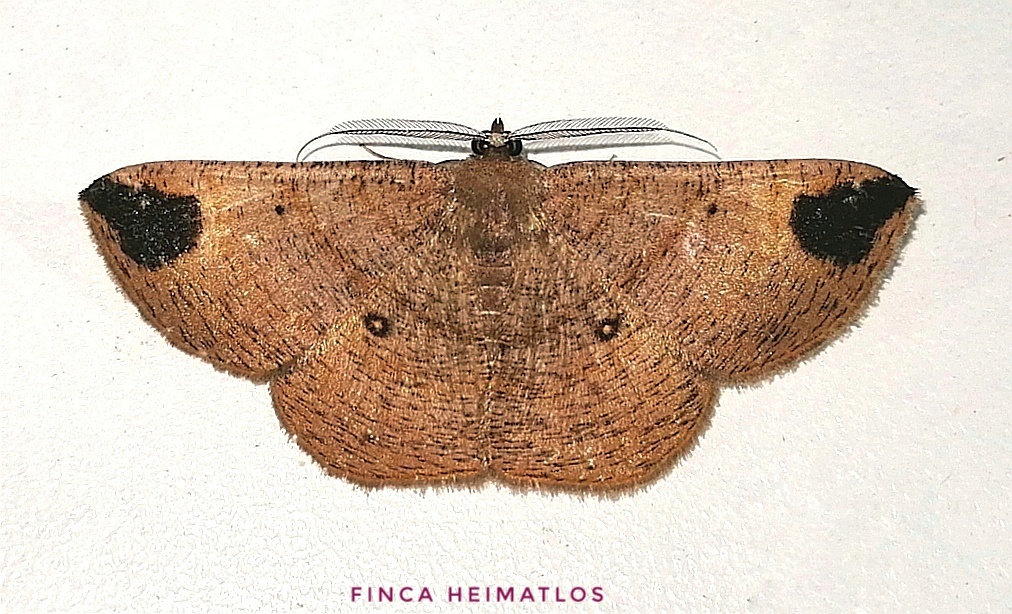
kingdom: Animalia
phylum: Arthropoda
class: Insecta
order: Lepidoptera
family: Geometridae
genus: Thysanopyga
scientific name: Thysanopyga
